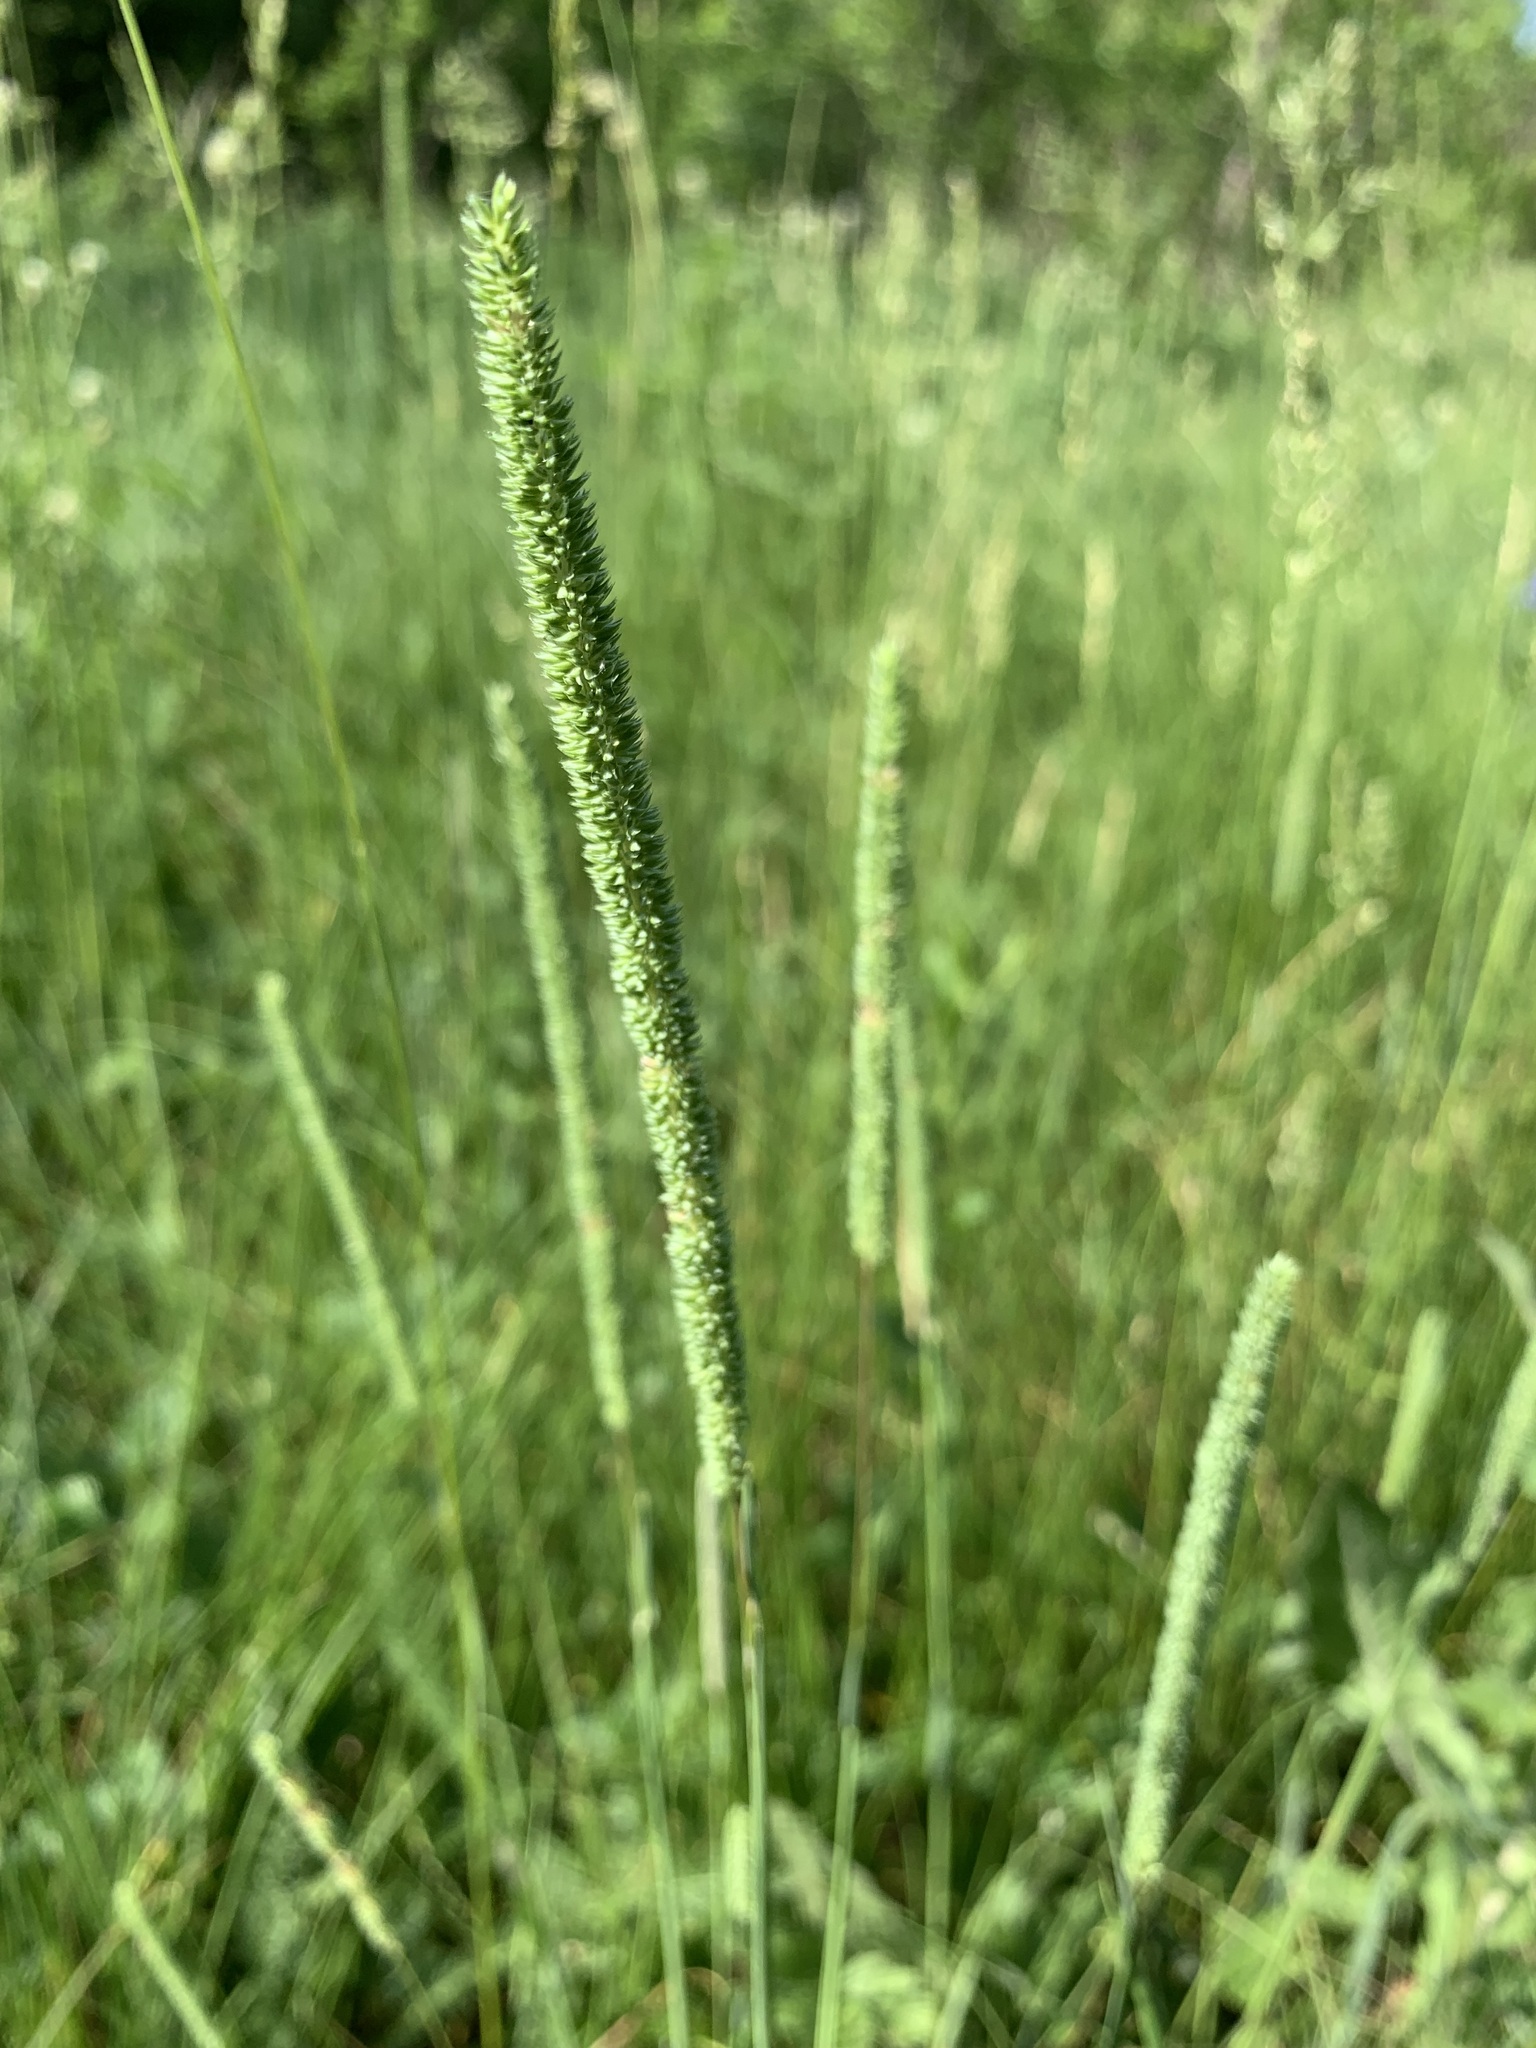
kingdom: Plantae
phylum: Tracheophyta
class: Liliopsida
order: Poales
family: Poaceae
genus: Phleum
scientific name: Phleum phleoides
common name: Purple-stem cat's-tail
